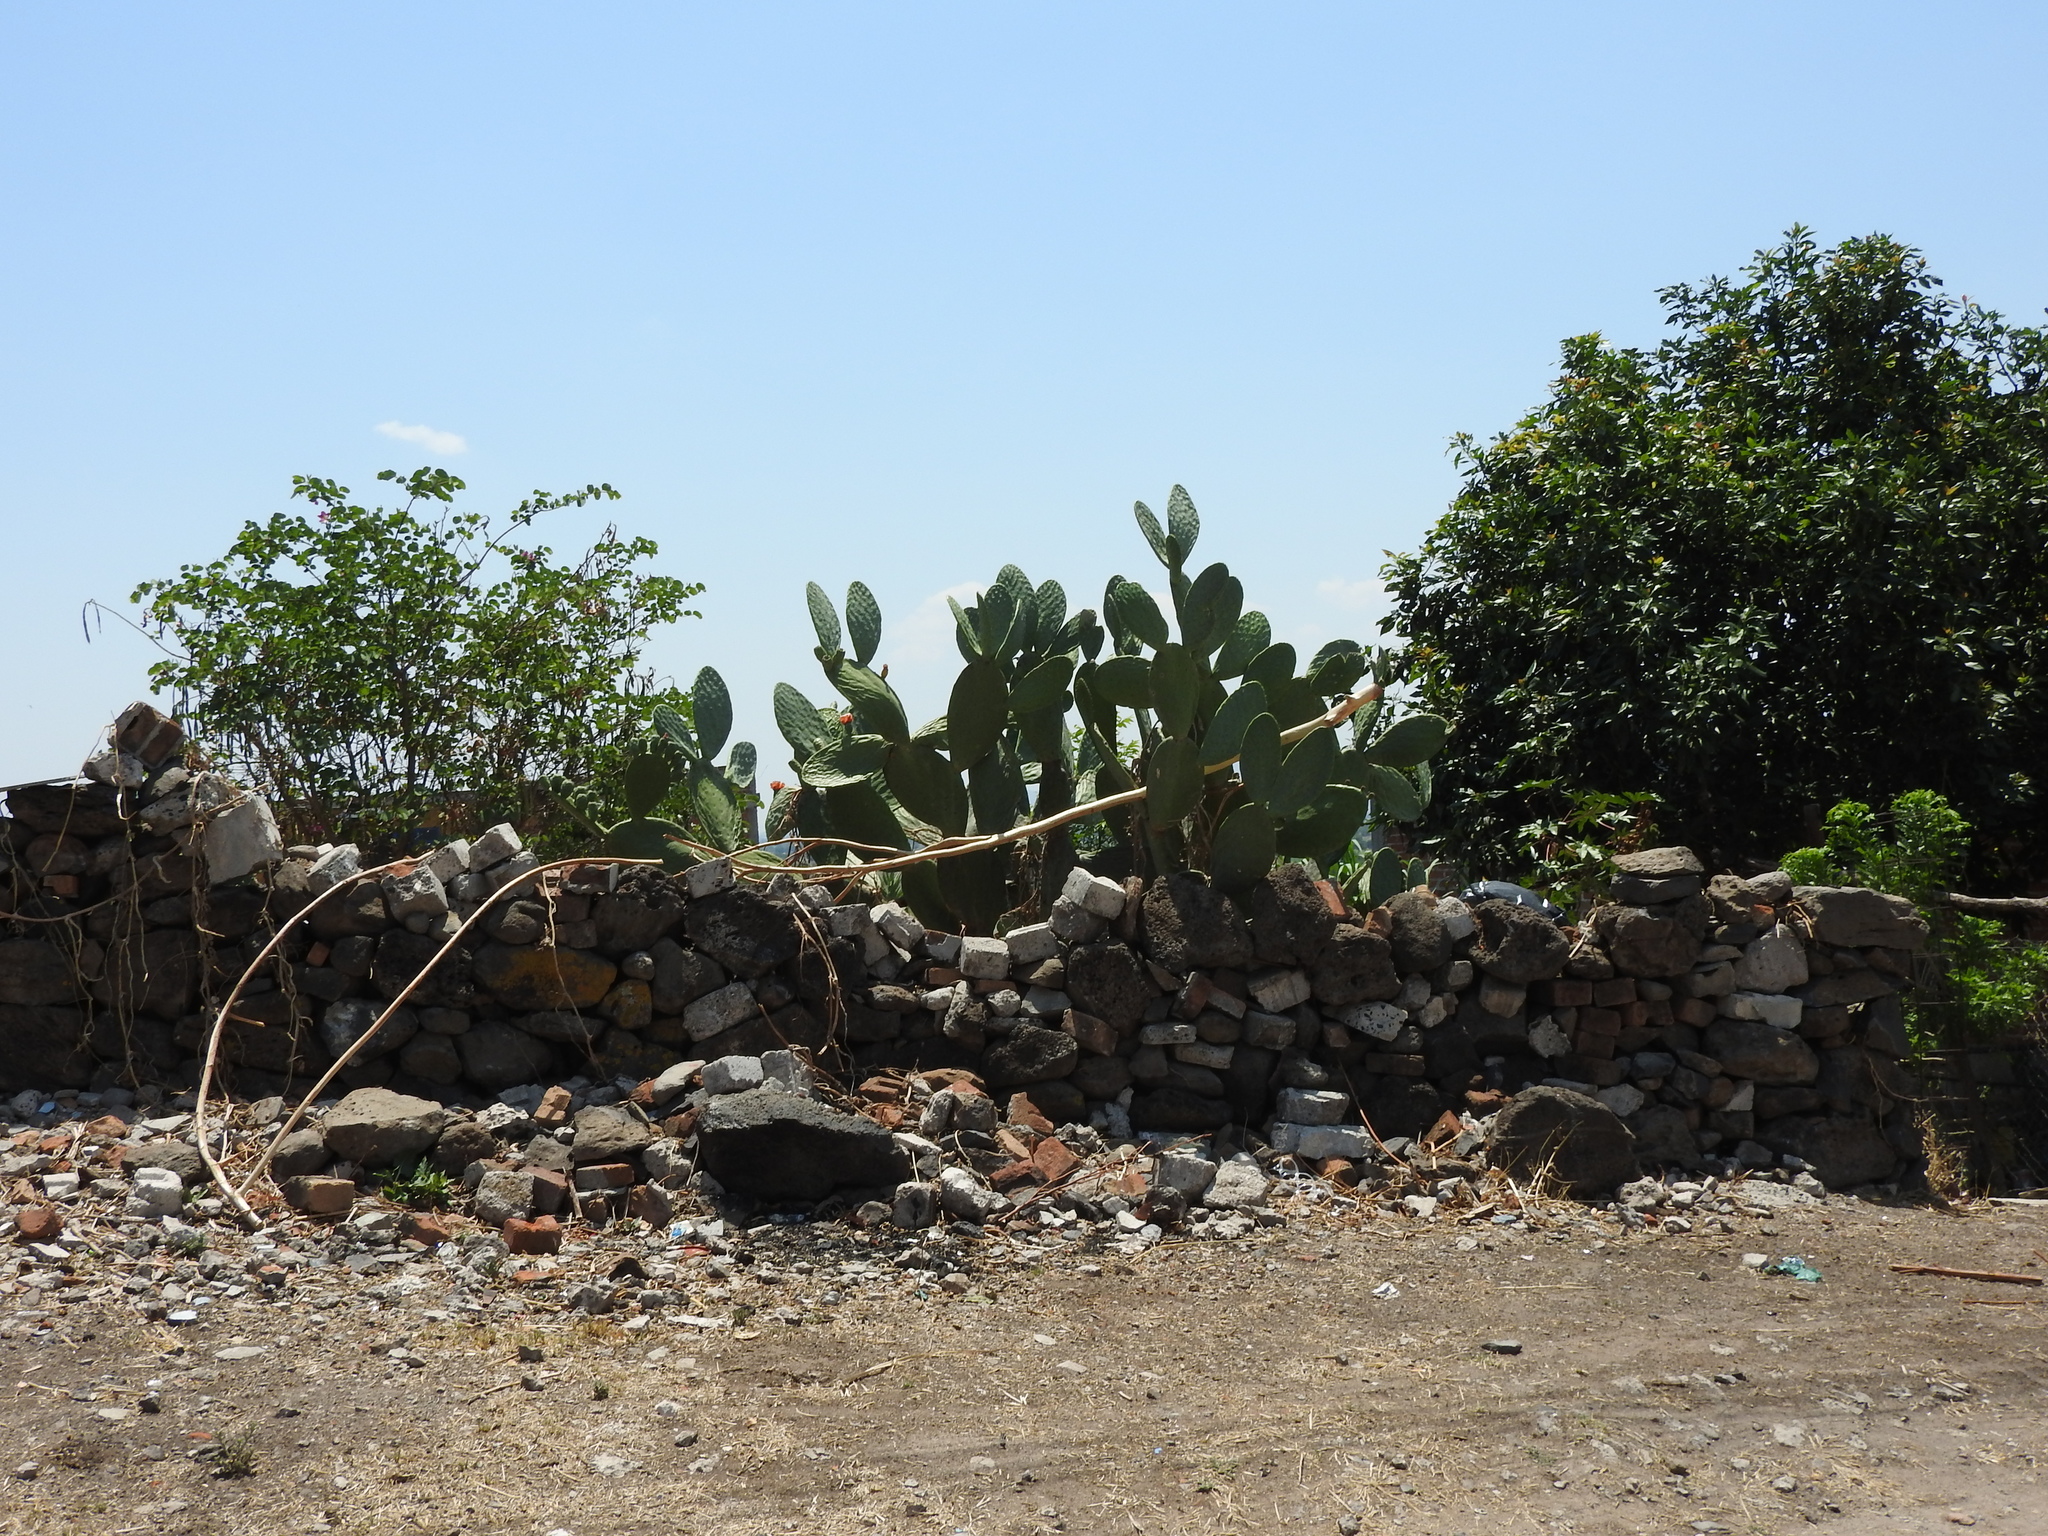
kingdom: Plantae
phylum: Tracheophyta
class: Magnoliopsida
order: Caryophyllales
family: Cactaceae
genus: Opuntia
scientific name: Opuntia ficus-indica
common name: Barbary fig
